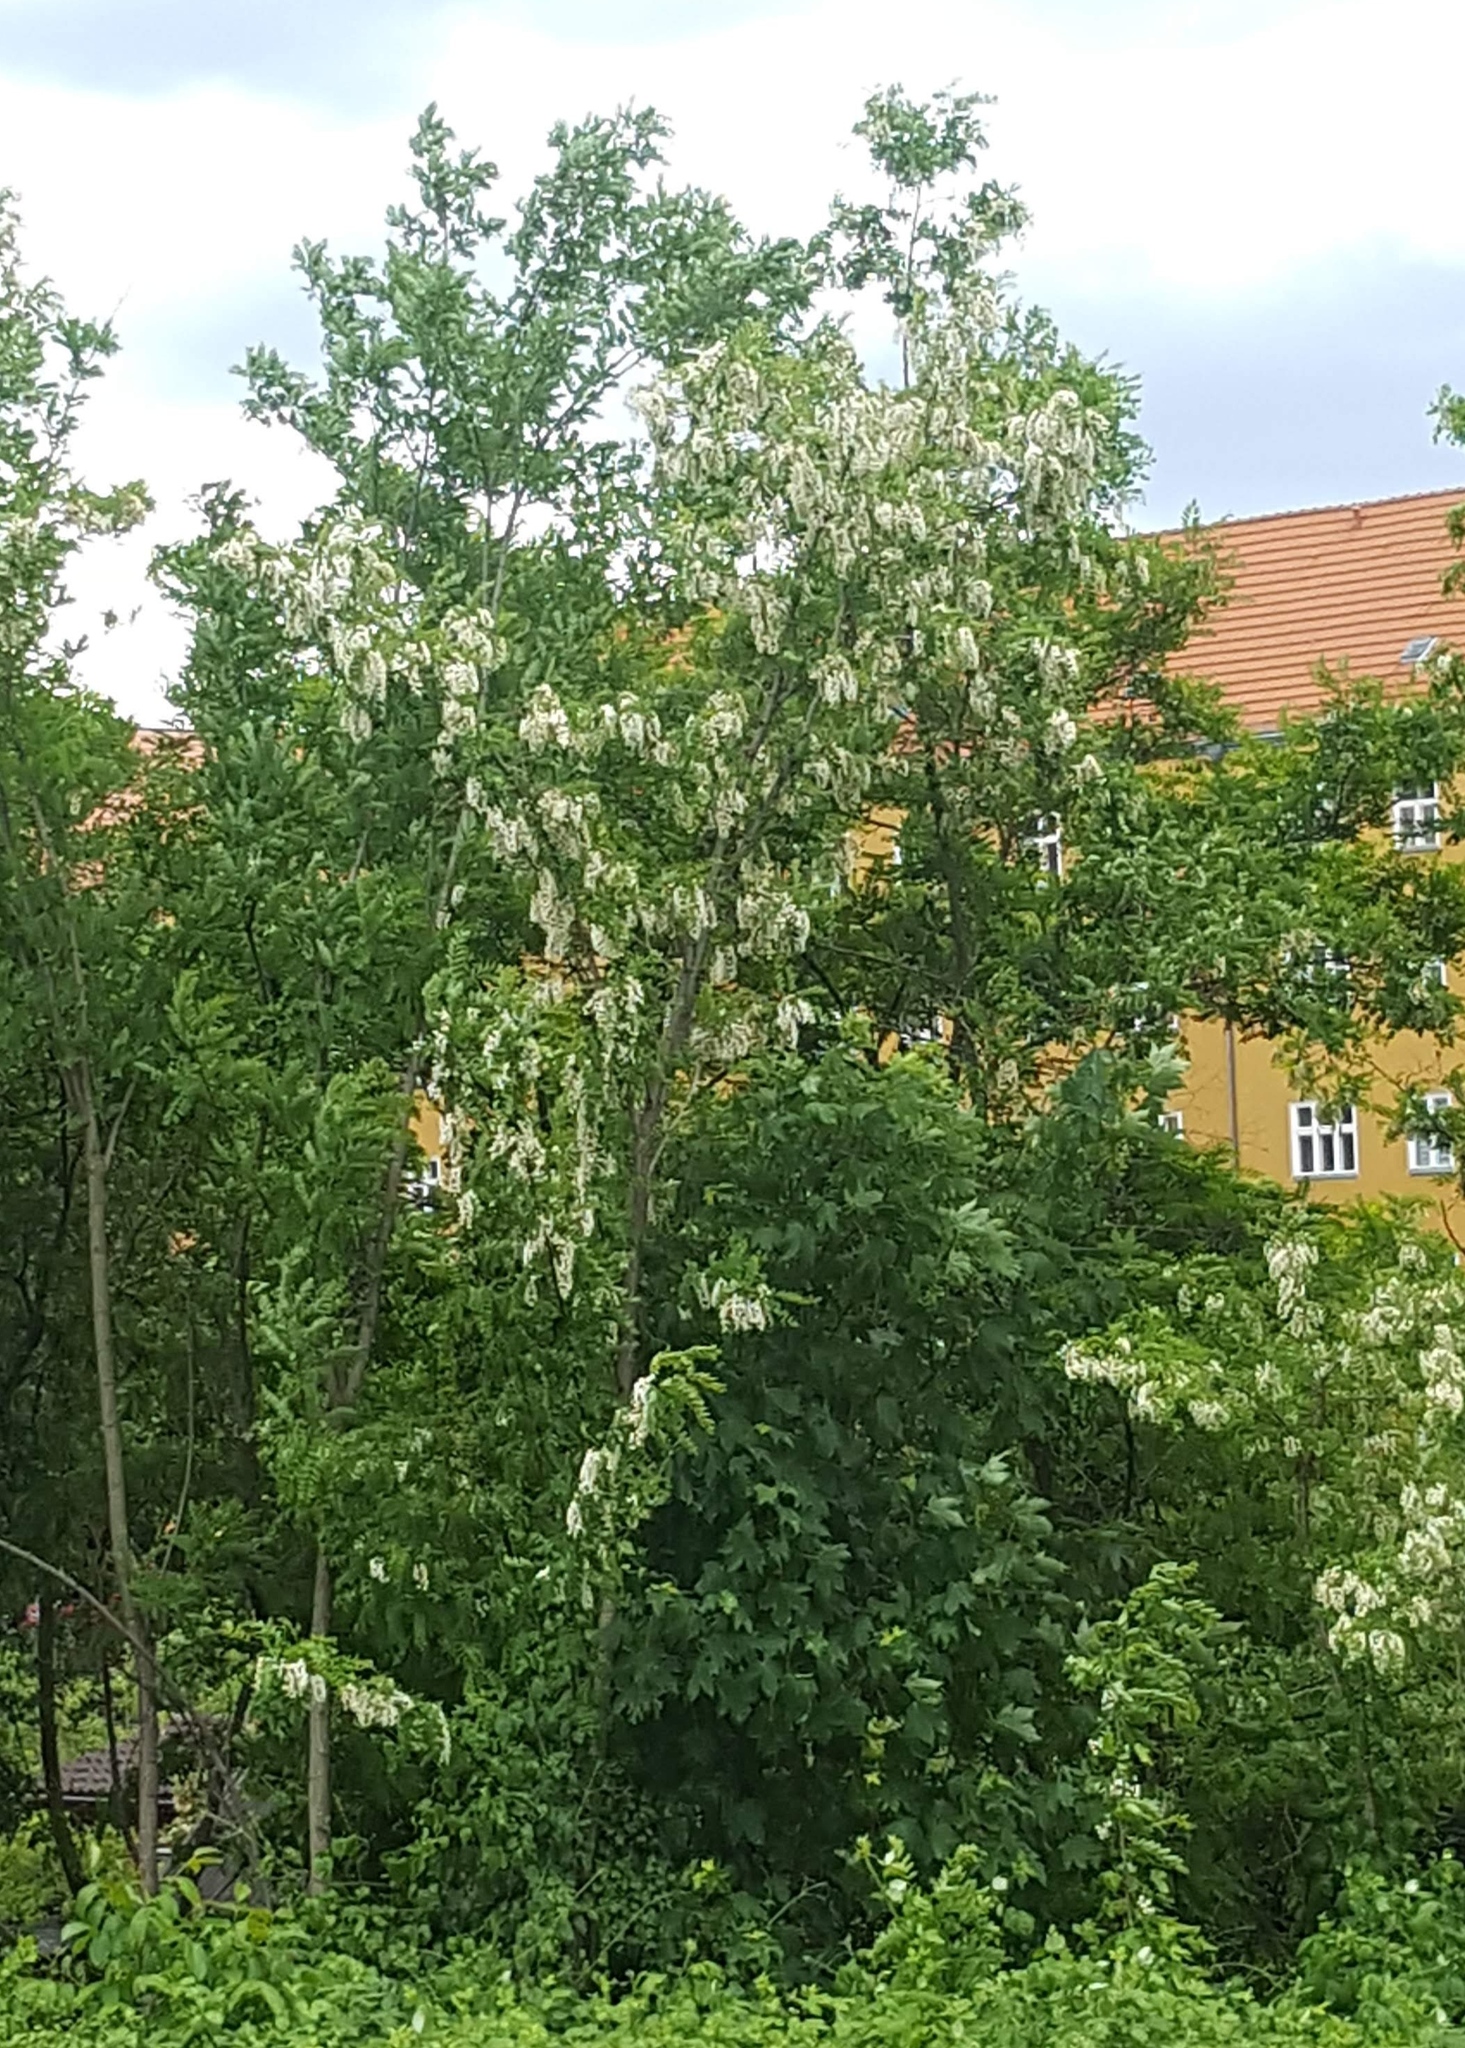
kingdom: Plantae
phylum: Tracheophyta
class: Magnoliopsida
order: Fabales
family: Fabaceae
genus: Robinia
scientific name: Robinia pseudoacacia
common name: Black locust
